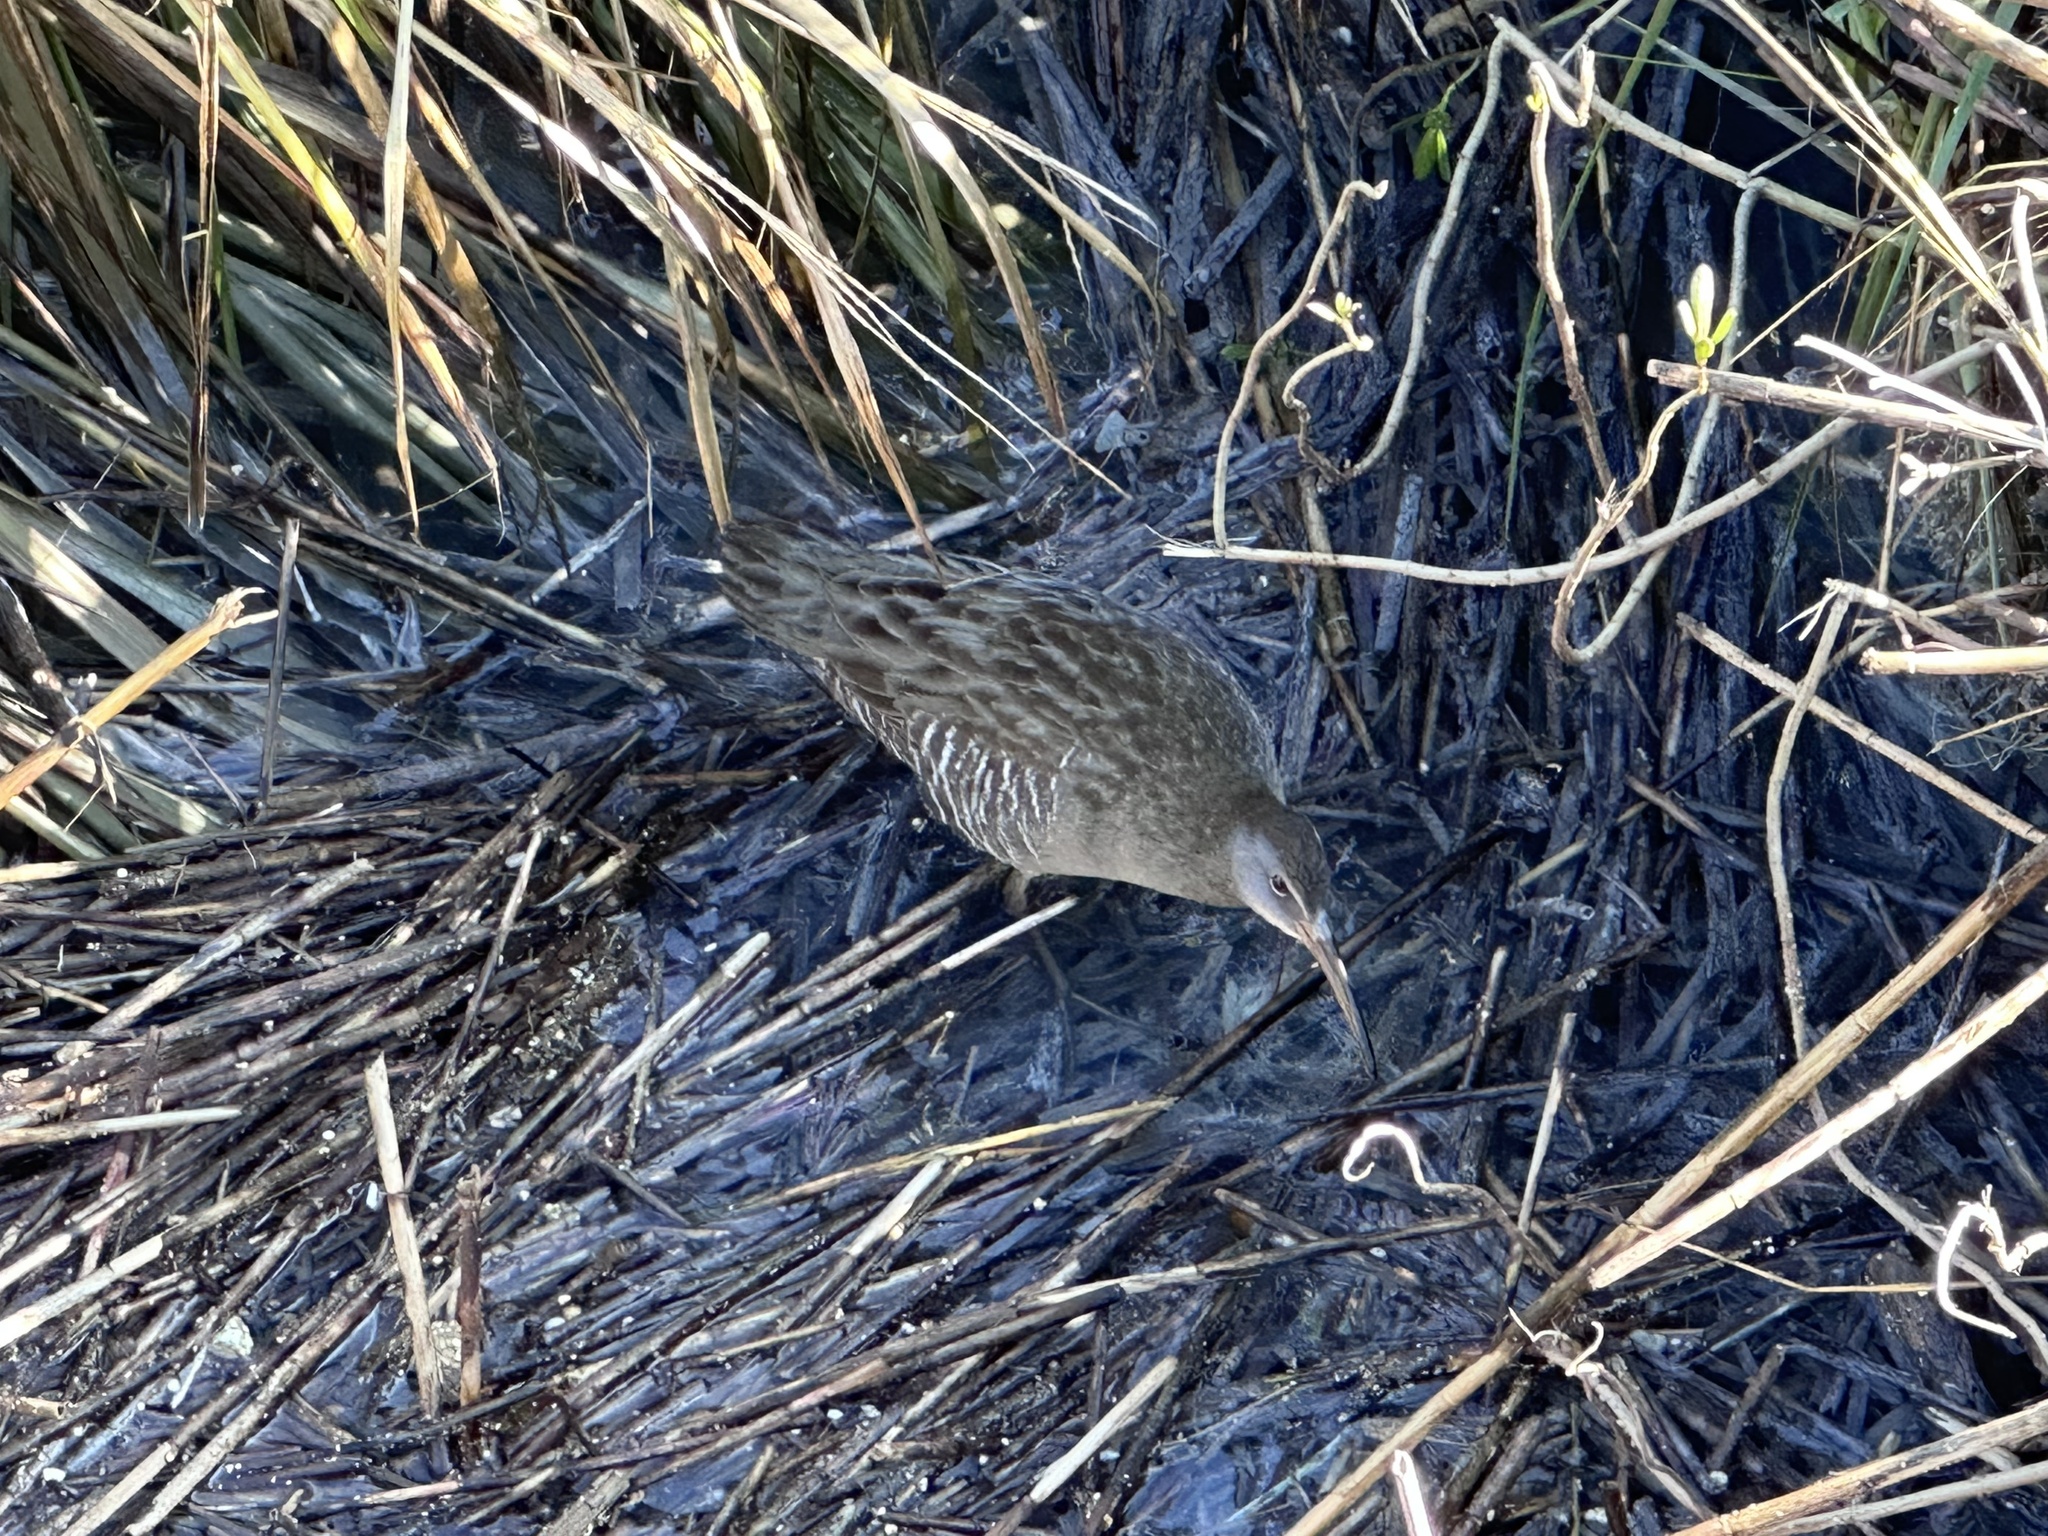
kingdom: Animalia
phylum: Chordata
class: Aves
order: Gruiformes
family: Rallidae
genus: Rallus
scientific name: Rallus crepitans
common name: Clapper rail
